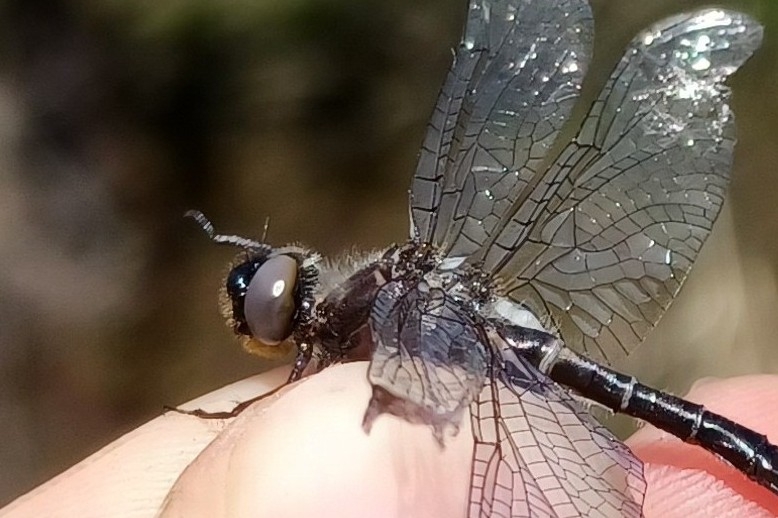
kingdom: Animalia
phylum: Arthropoda
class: Insecta
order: Odonata
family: Corduliidae
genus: Williamsonia
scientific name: Williamsonia fletcheri
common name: Ebony boghaunter
